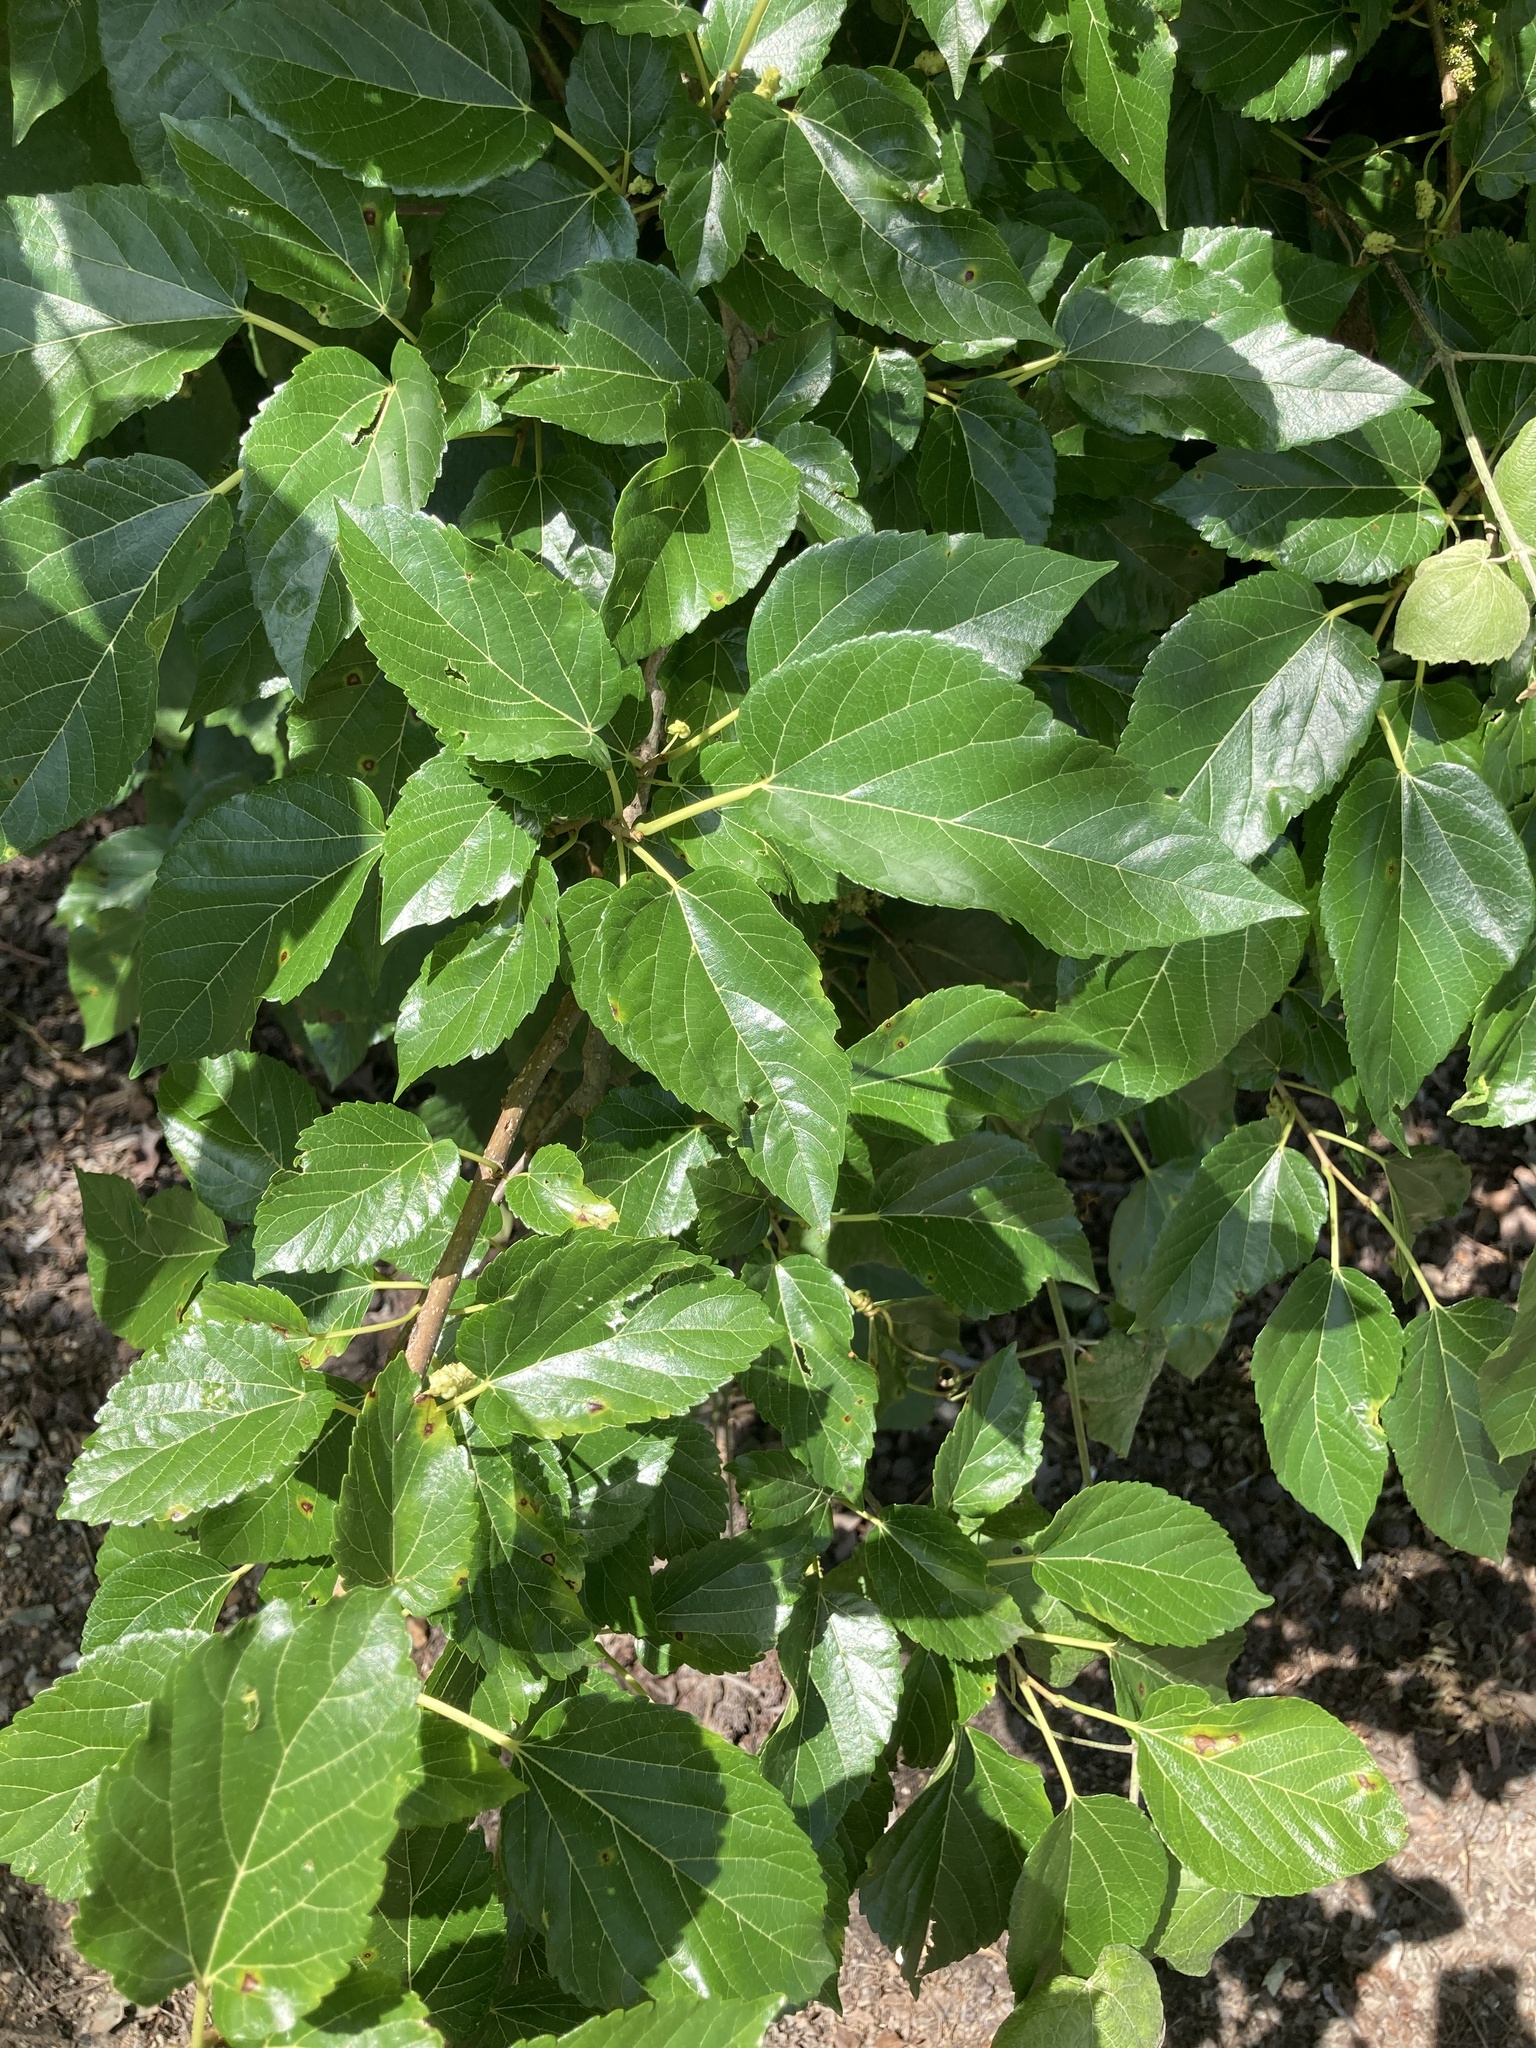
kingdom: Plantae
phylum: Tracheophyta
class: Magnoliopsida
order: Rosales
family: Moraceae
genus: Morus
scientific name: Morus alba
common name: White mulberry
